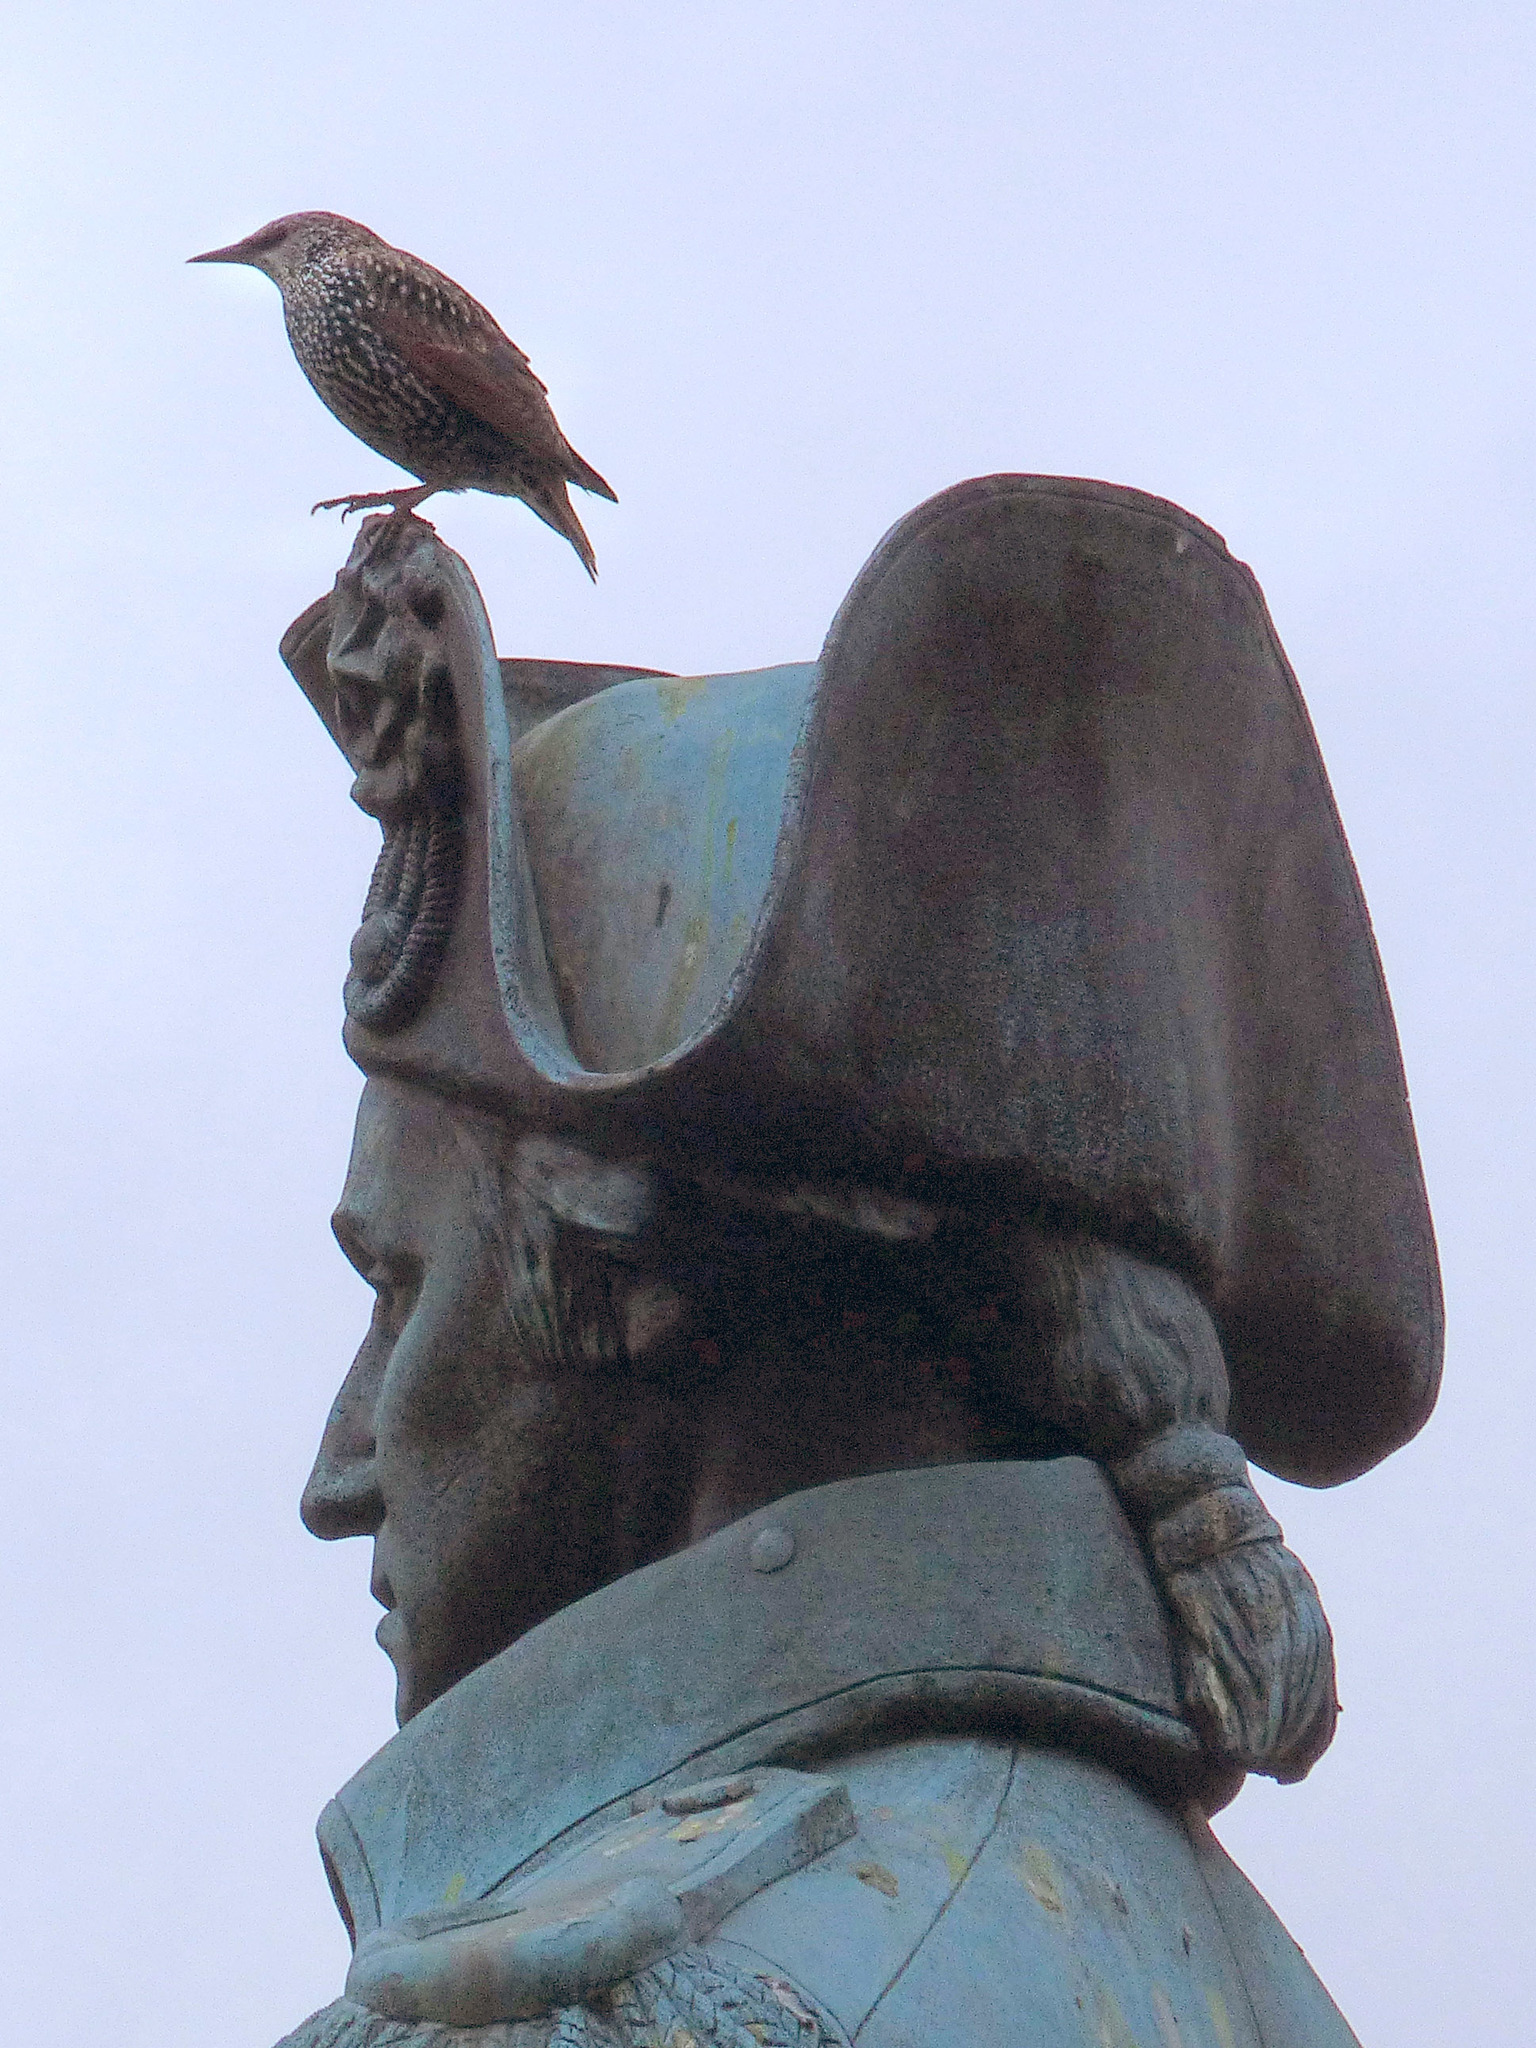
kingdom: Animalia
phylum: Chordata
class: Aves
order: Passeriformes
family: Sturnidae
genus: Sturnus
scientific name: Sturnus vulgaris
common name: Common starling
